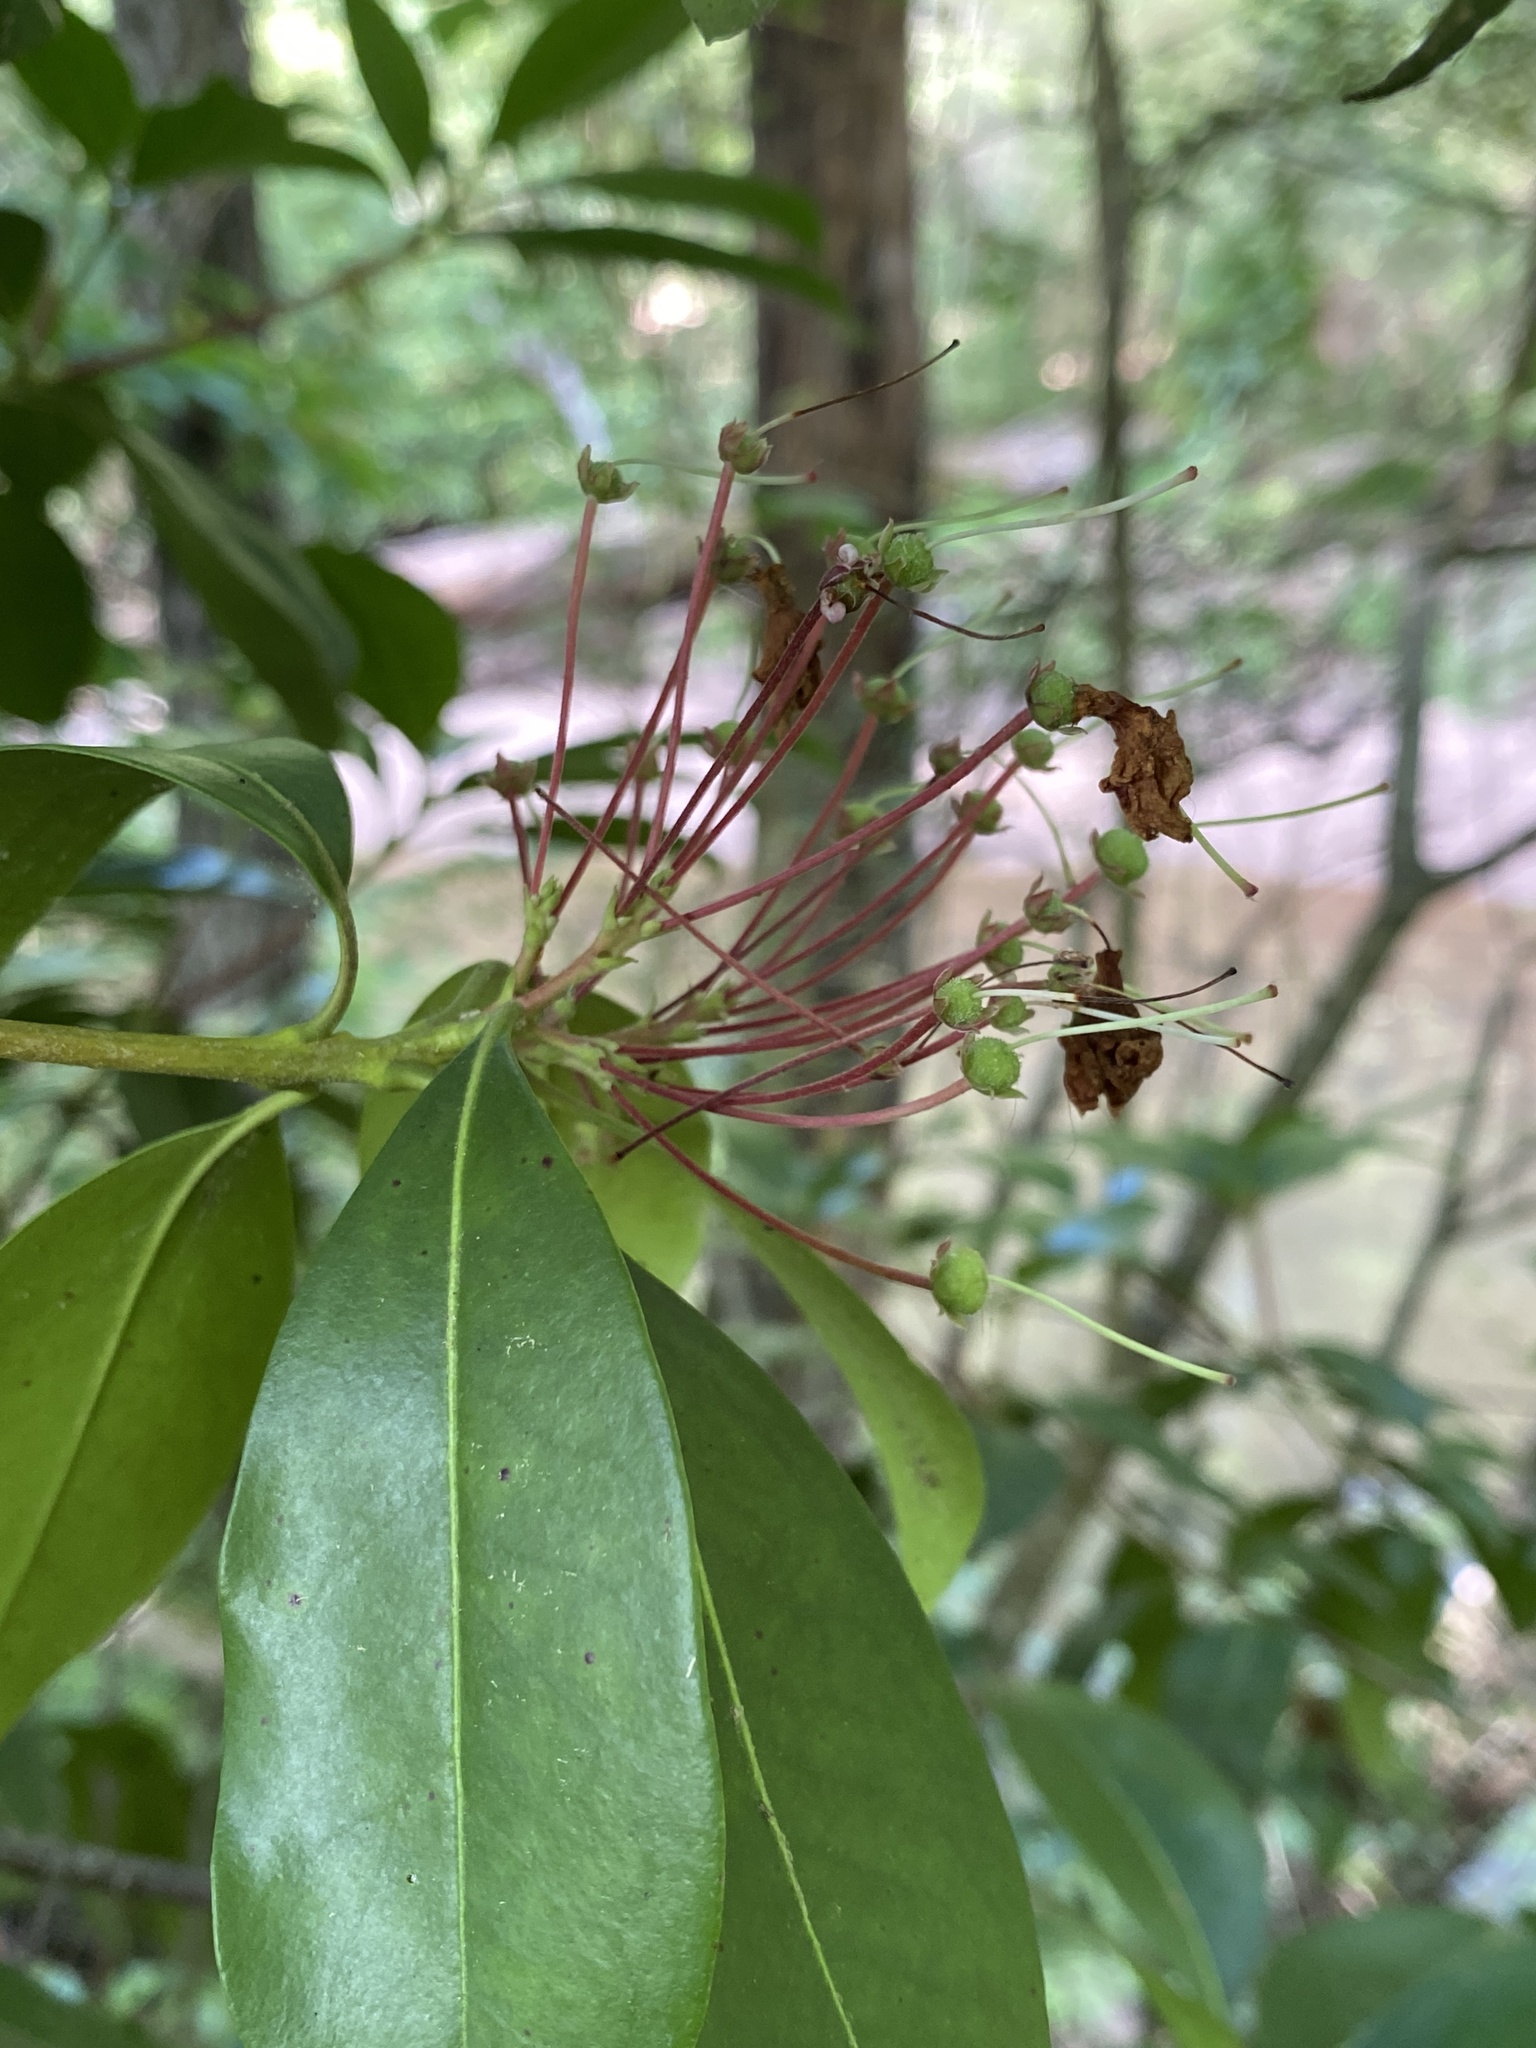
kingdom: Plantae
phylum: Tracheophyta
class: Magnoliopsida
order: Ericales
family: Ericaceae
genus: Kalmia
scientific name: Kalmia latifolia
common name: Mountain-laurel
